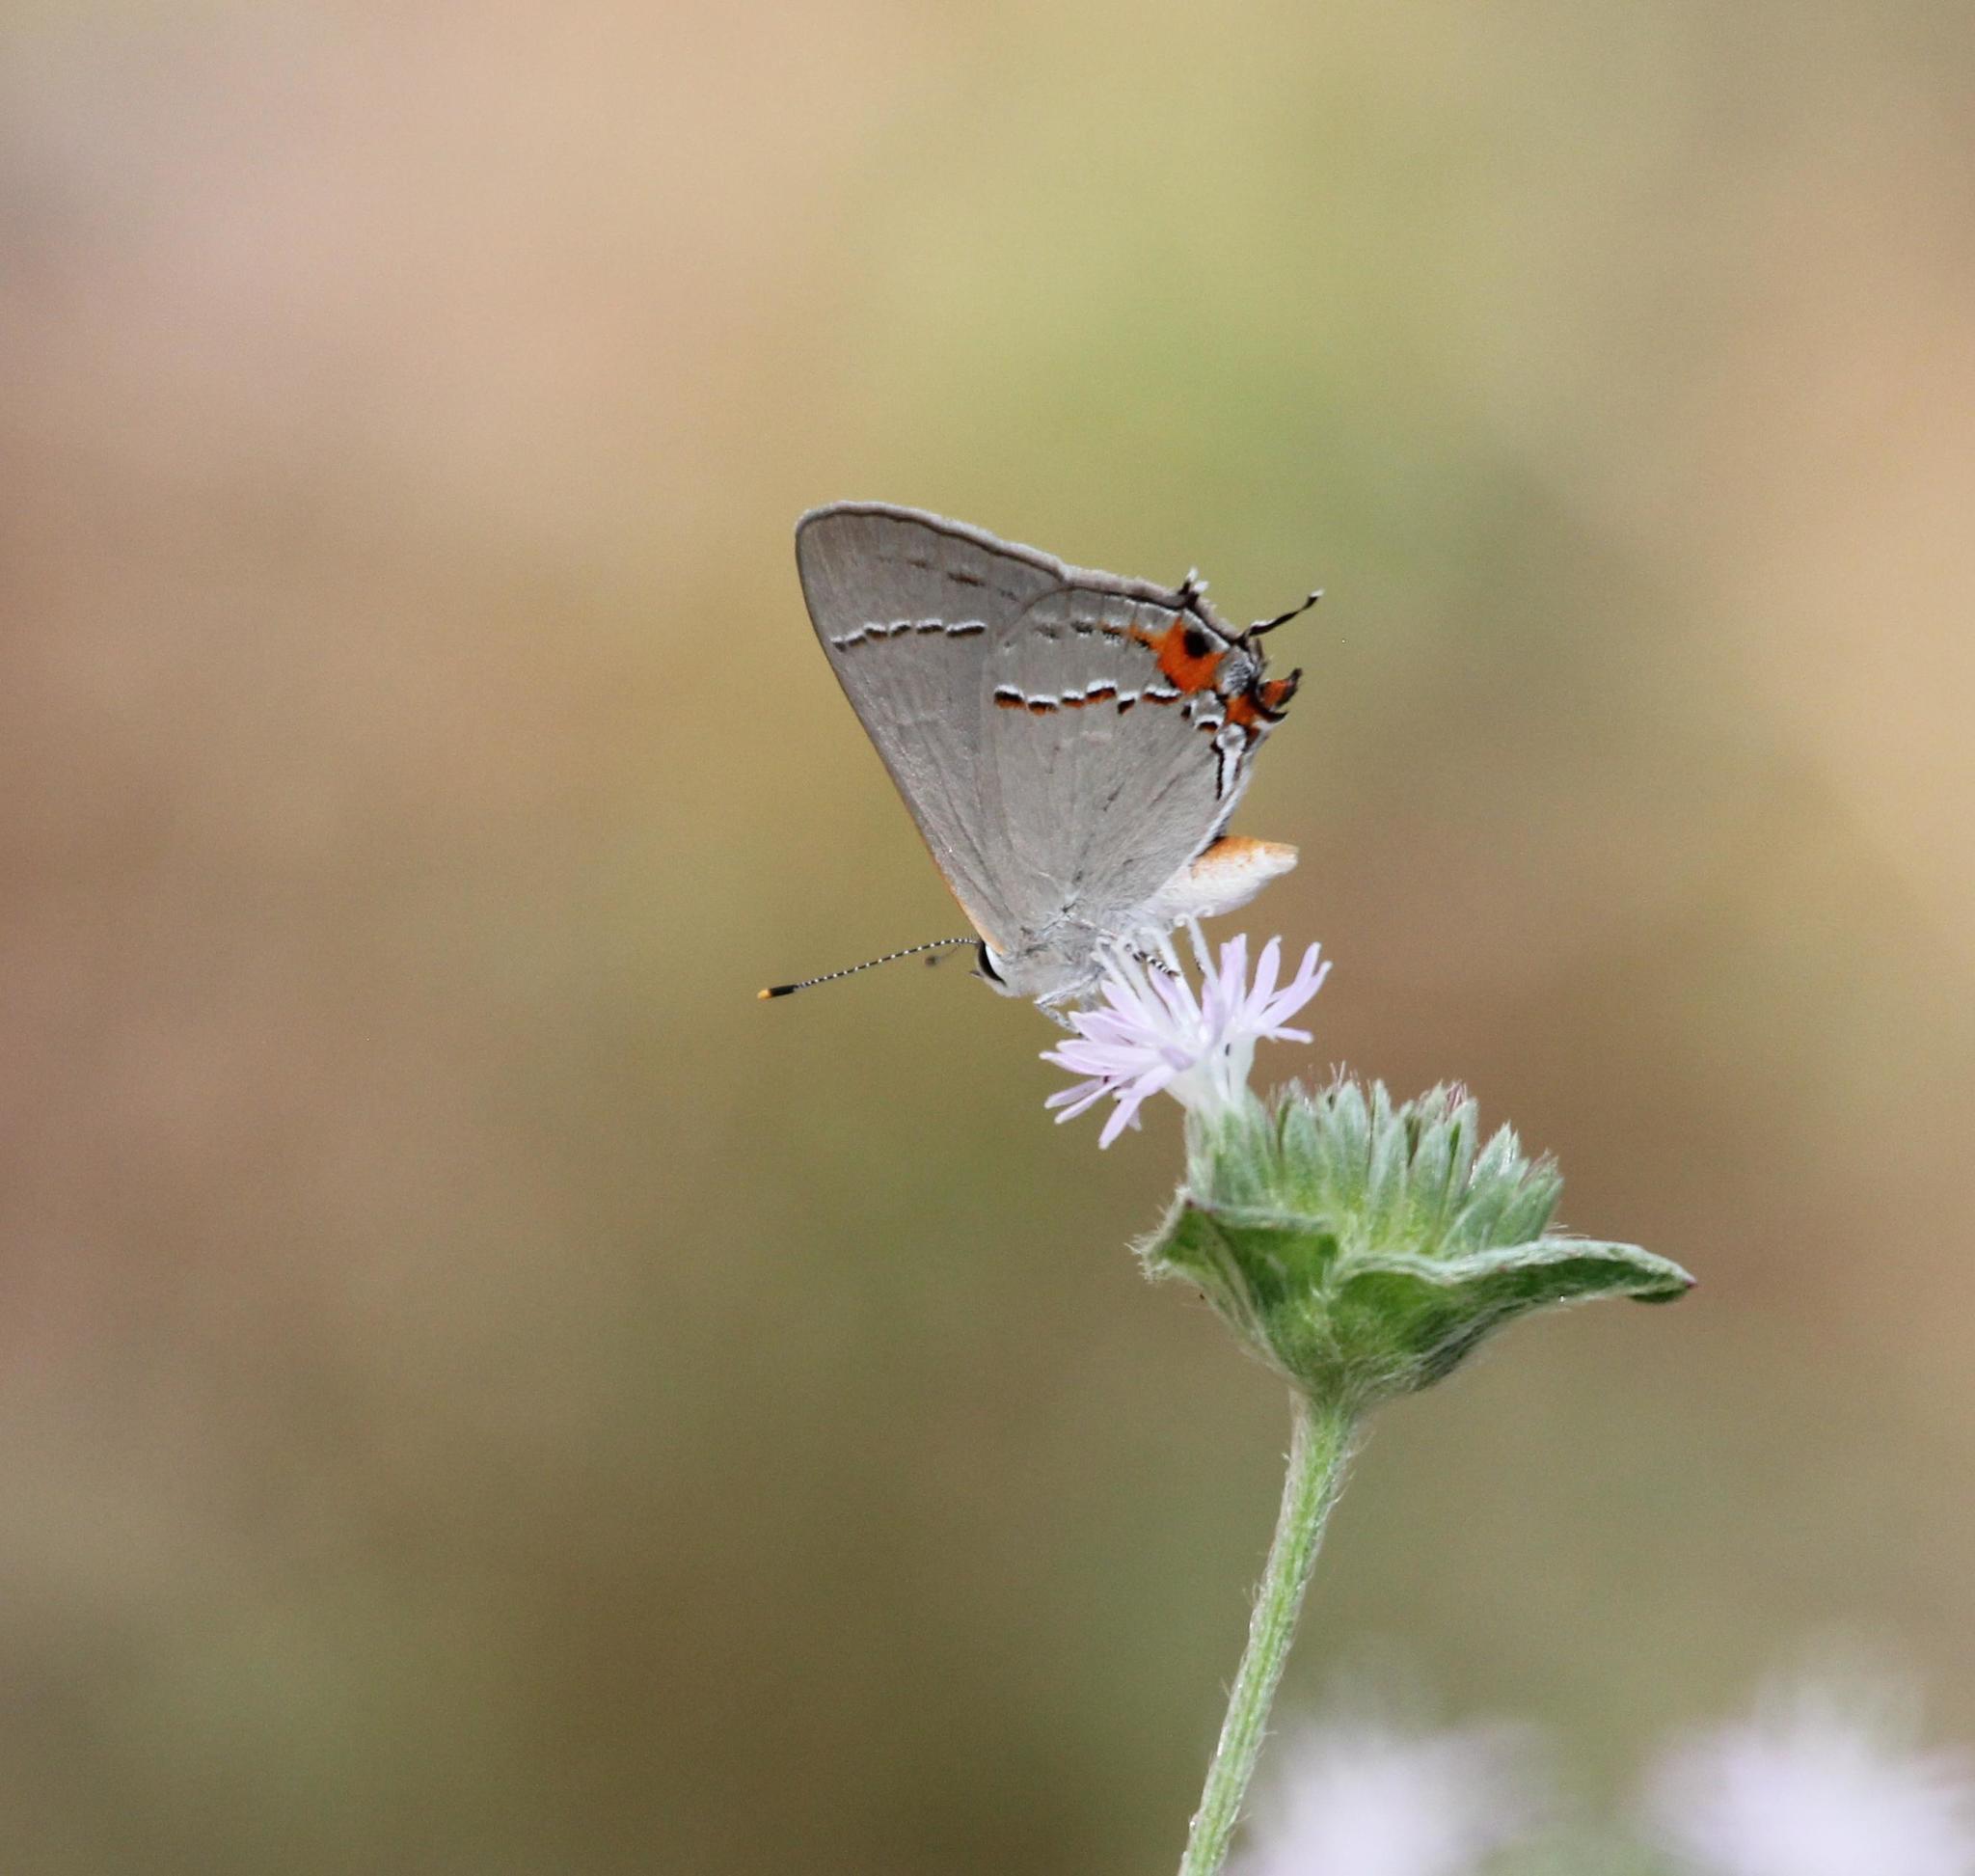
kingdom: Animalia
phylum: Arthropoda
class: Insecta
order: Lepidoptera
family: Lycaenidae
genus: Strymon
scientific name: Strymon melinus
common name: Gray hairstreak
